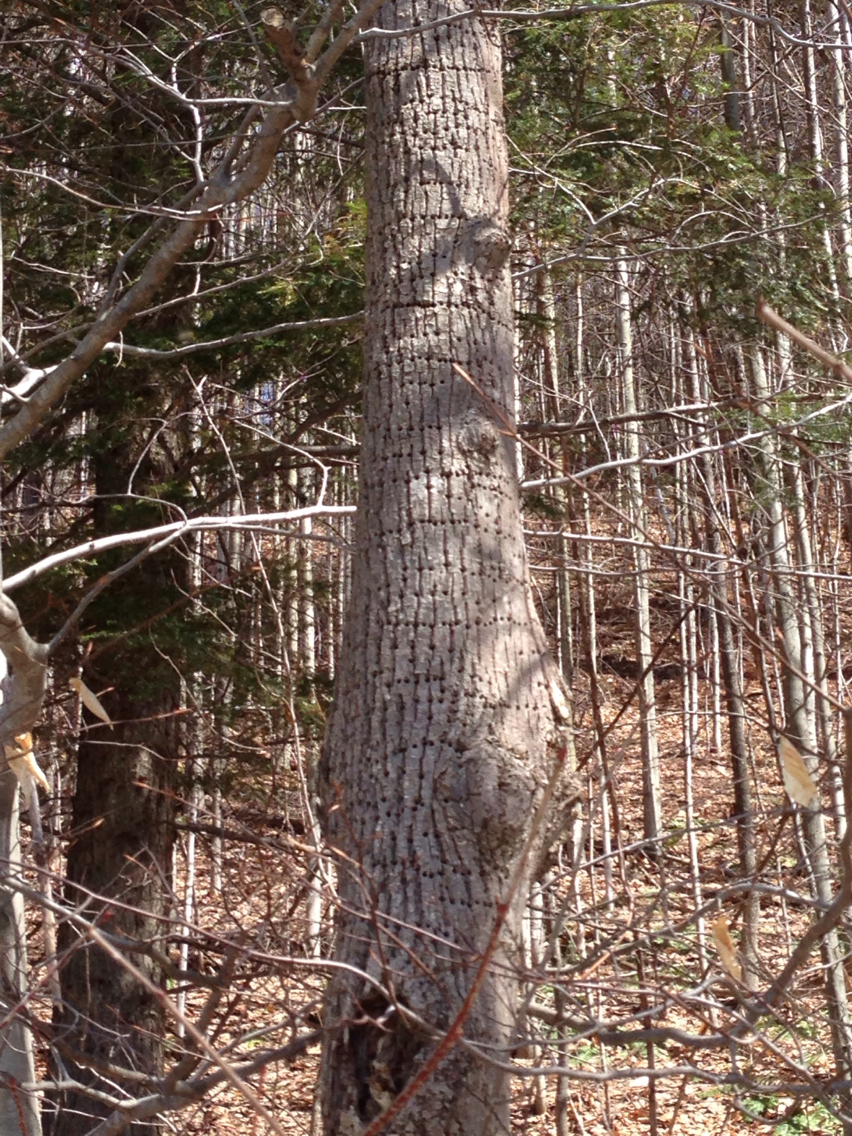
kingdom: Animalia
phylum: Chordata
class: Aves
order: Piciformes
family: Picidae
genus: Sphyrapicus
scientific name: Sphyrapicus varius
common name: Yellow-bellied sapsucker
